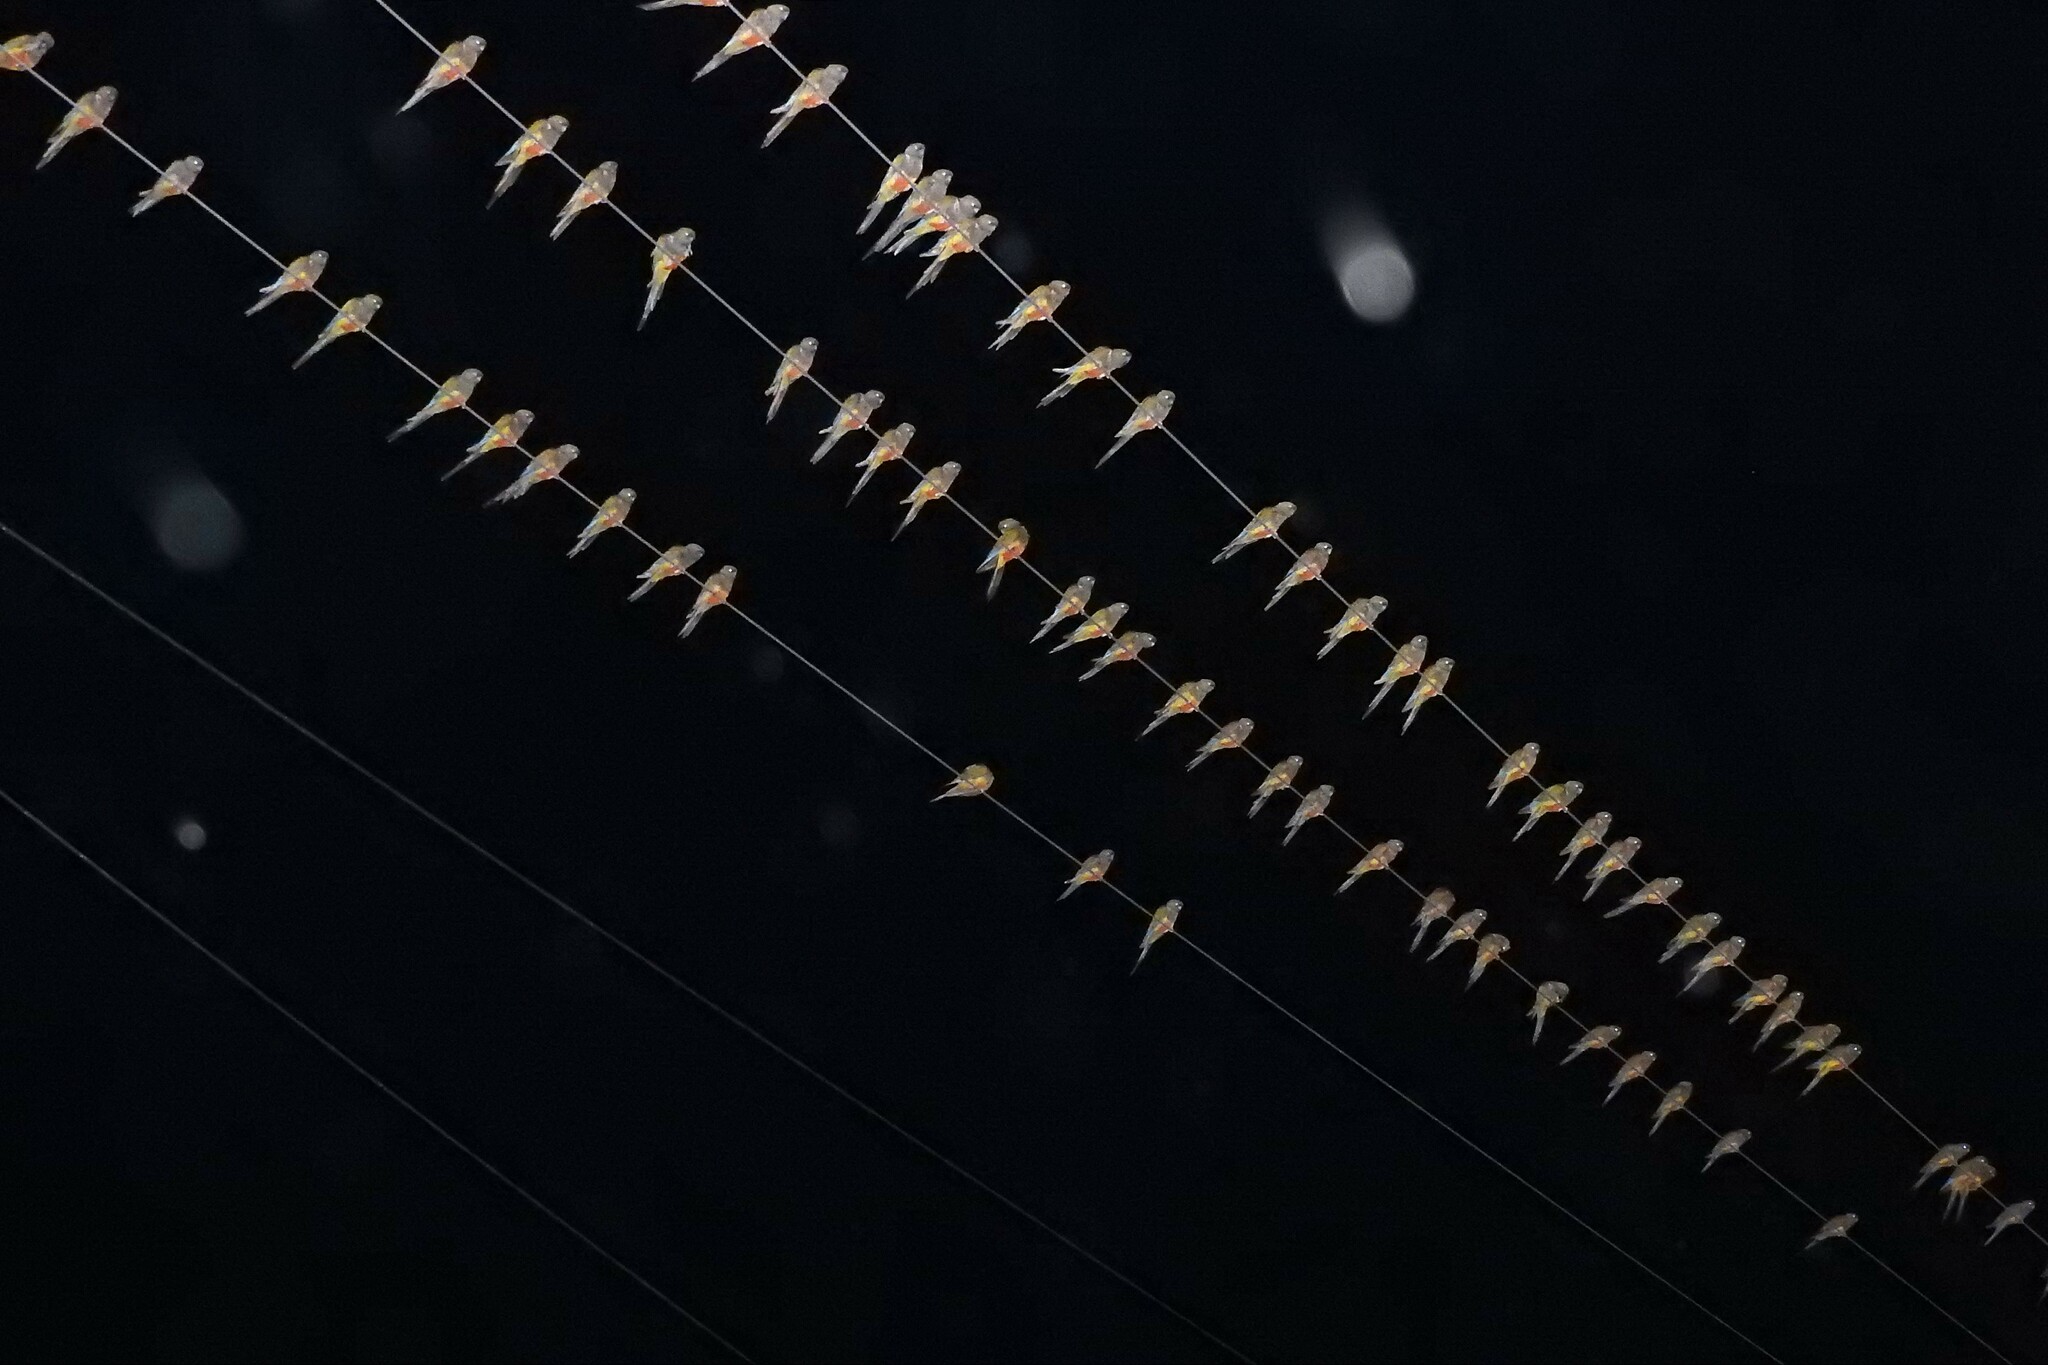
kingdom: Animalia
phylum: Chordata
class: Aves
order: Psittaciformes
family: Psittacidae
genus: Cyanoliseus
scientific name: Cyanoliseus patagonus
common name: Burrowing parrot
